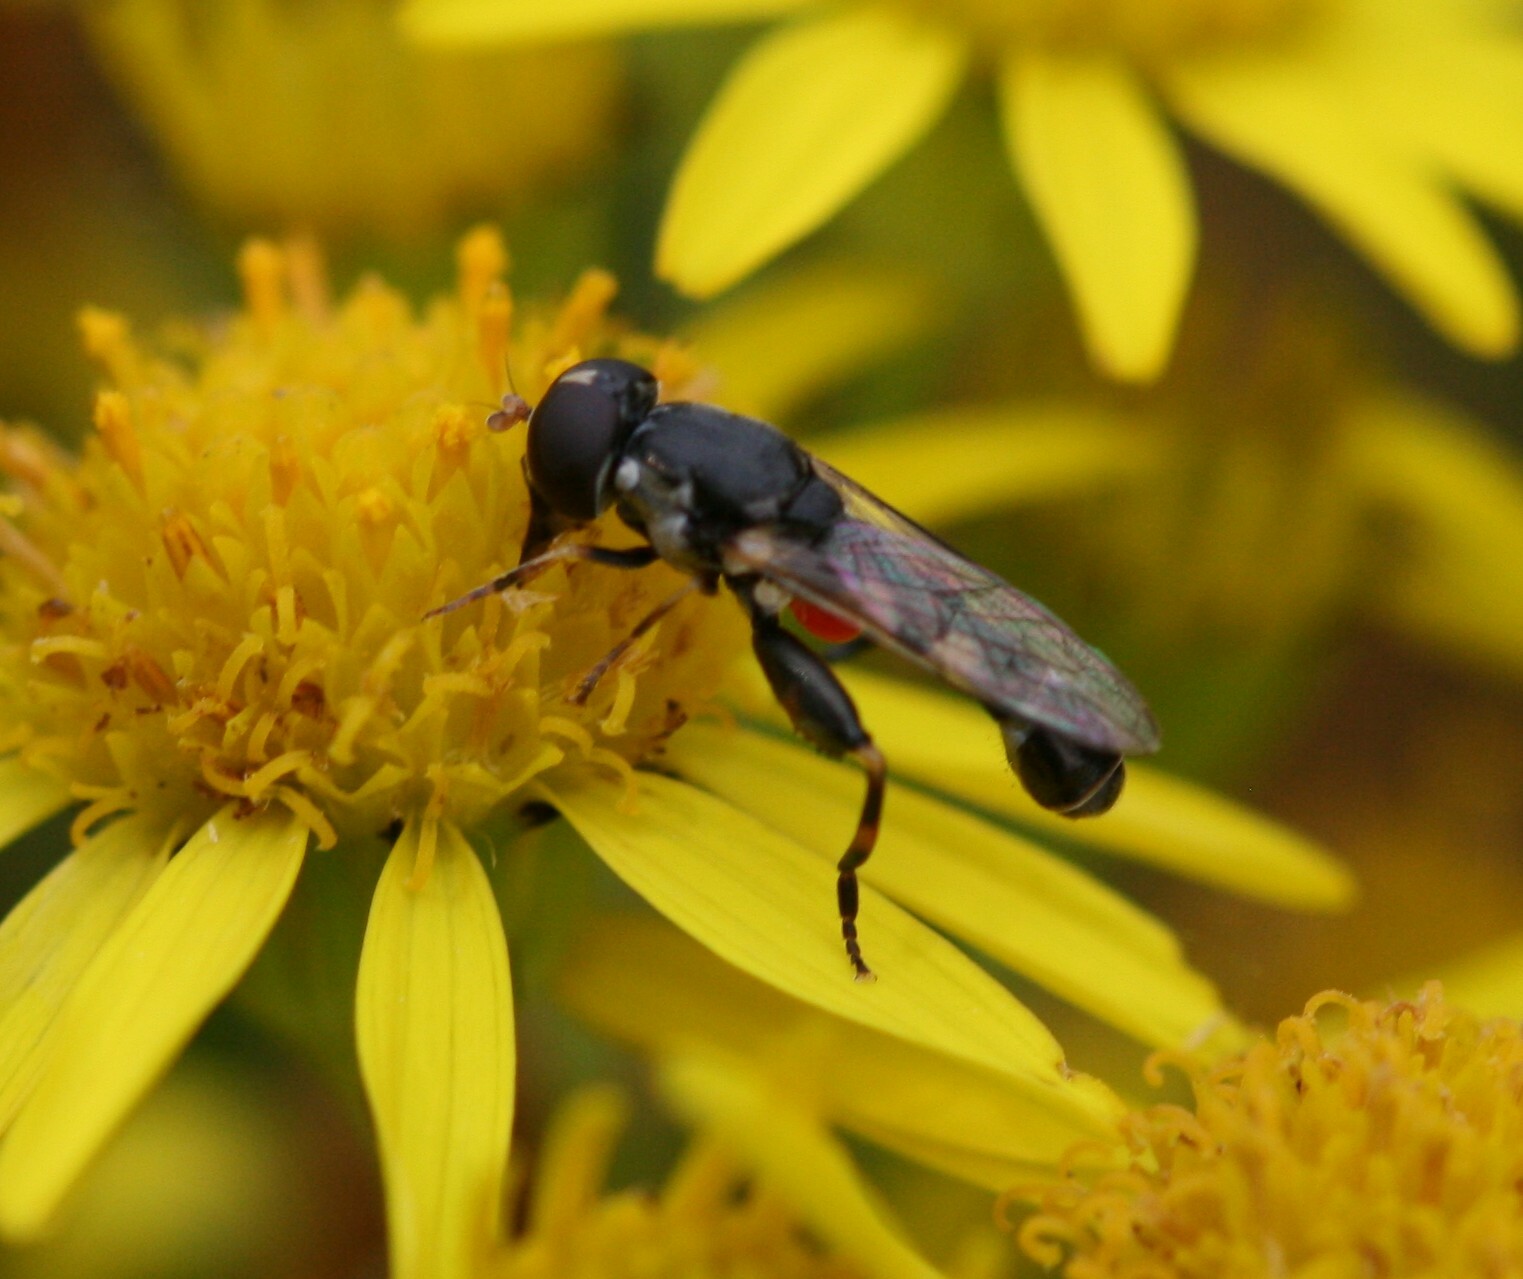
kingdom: Animalia
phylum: Arthropoda
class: Insecta
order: Diptera
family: Syrphidae
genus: Syritta
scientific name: Syritta pipiens
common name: Hover fly
